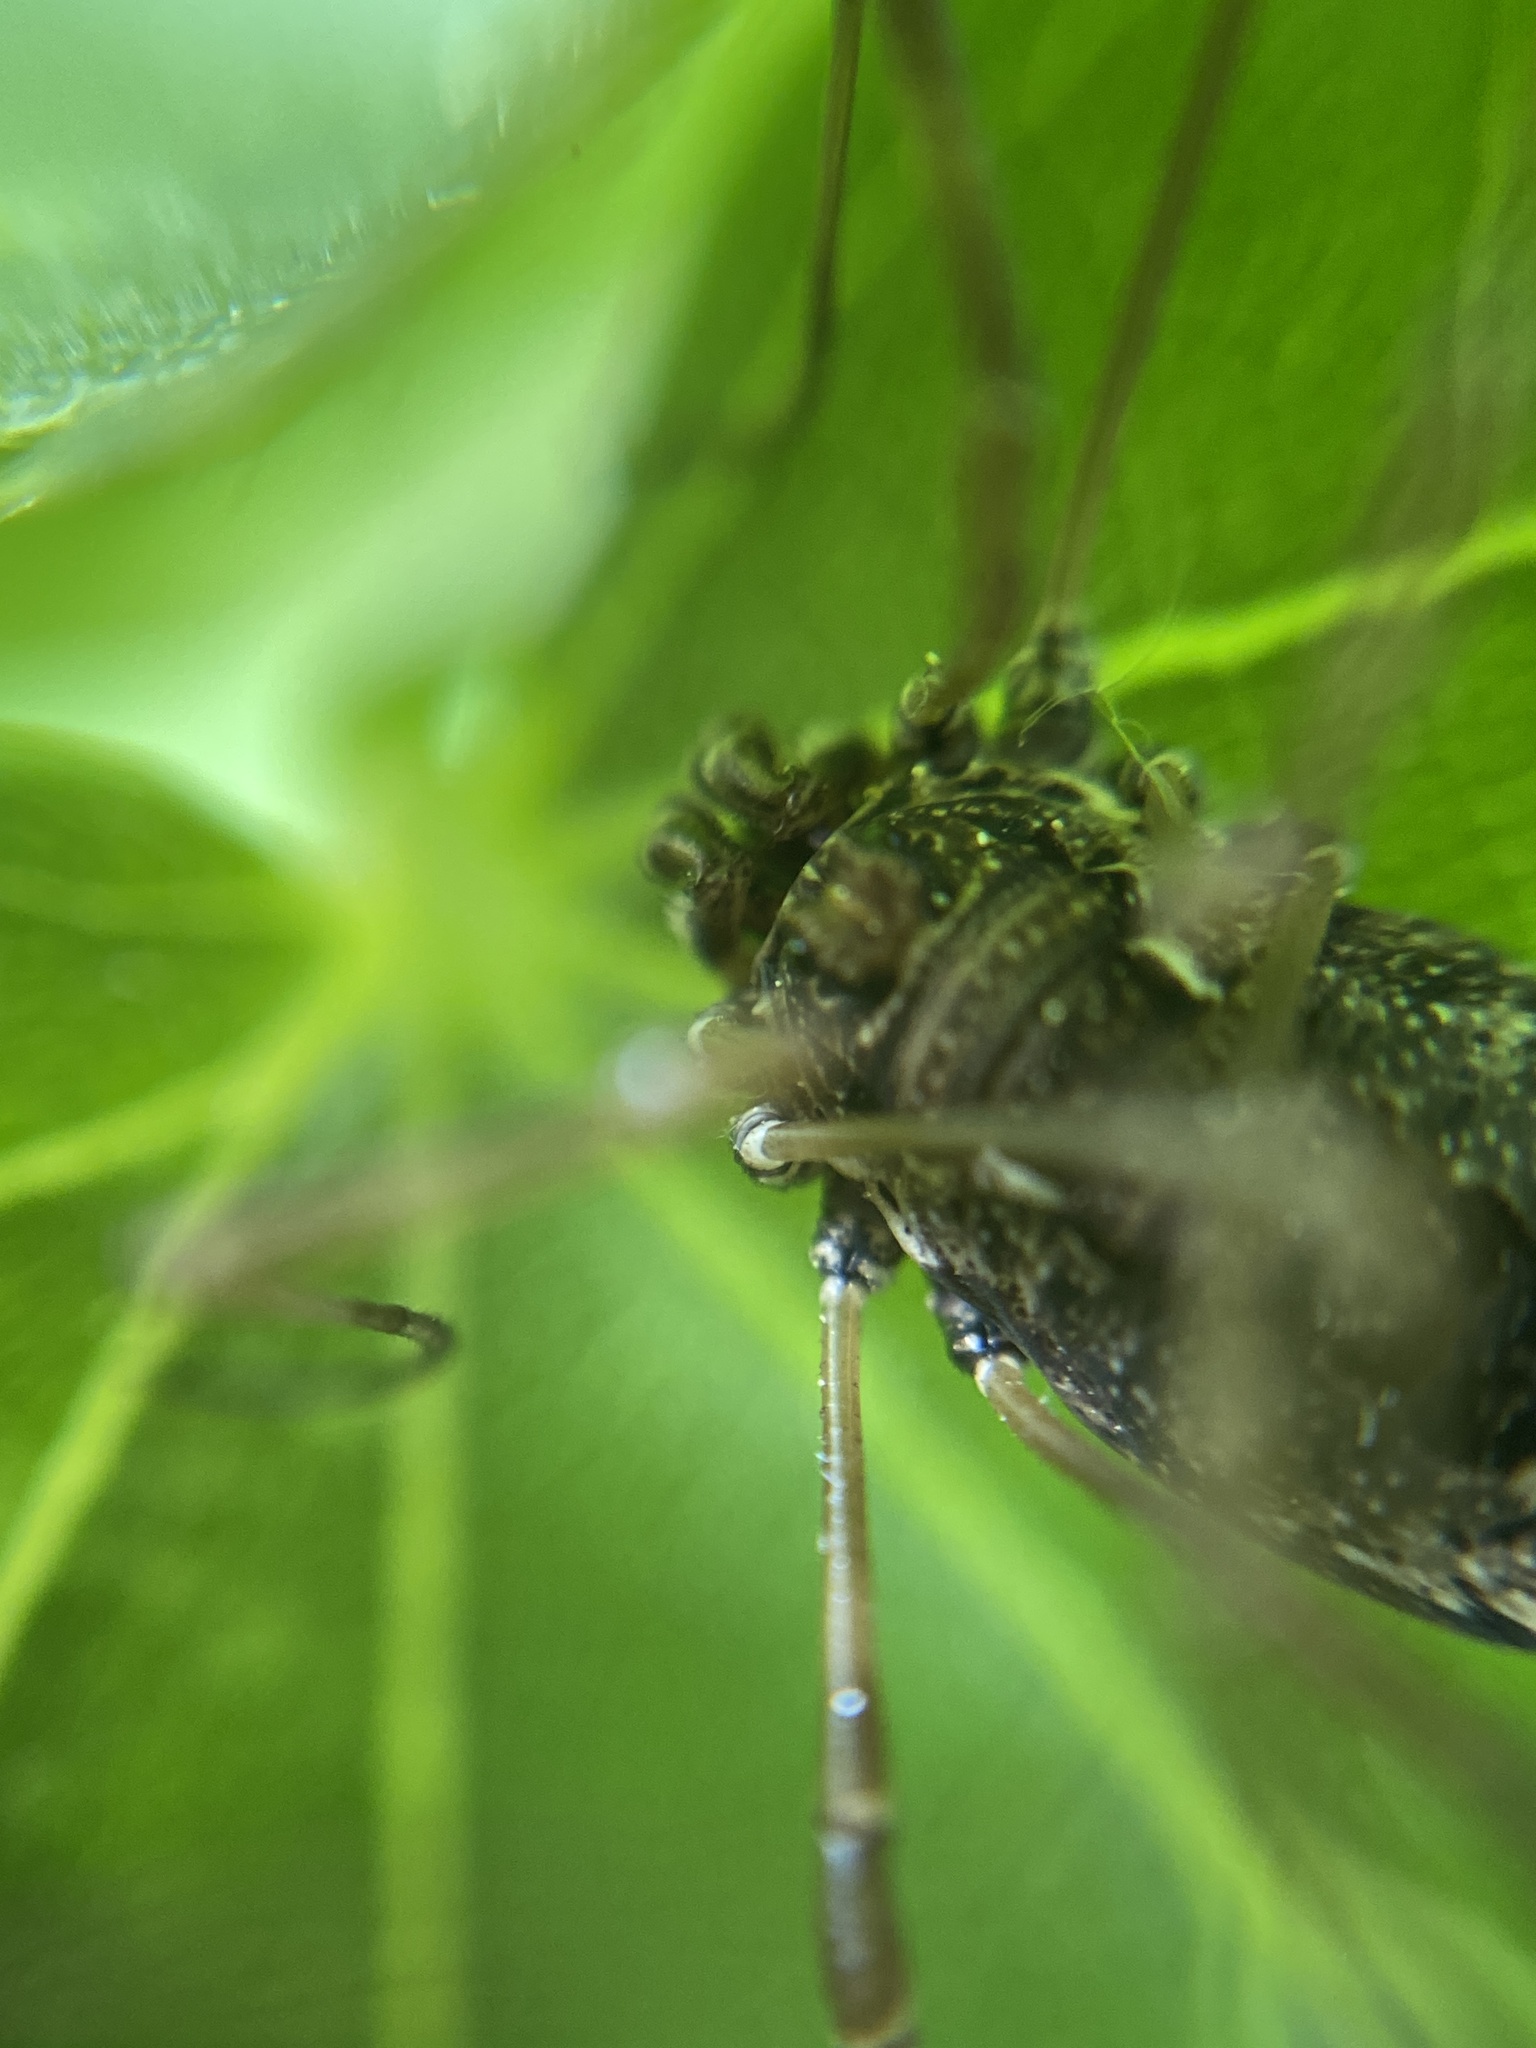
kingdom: Animalia
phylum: Arthropoda
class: Arachnida
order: Opiliones
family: Phalangiidae
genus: Platybunus
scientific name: Platybunus pinetorum
